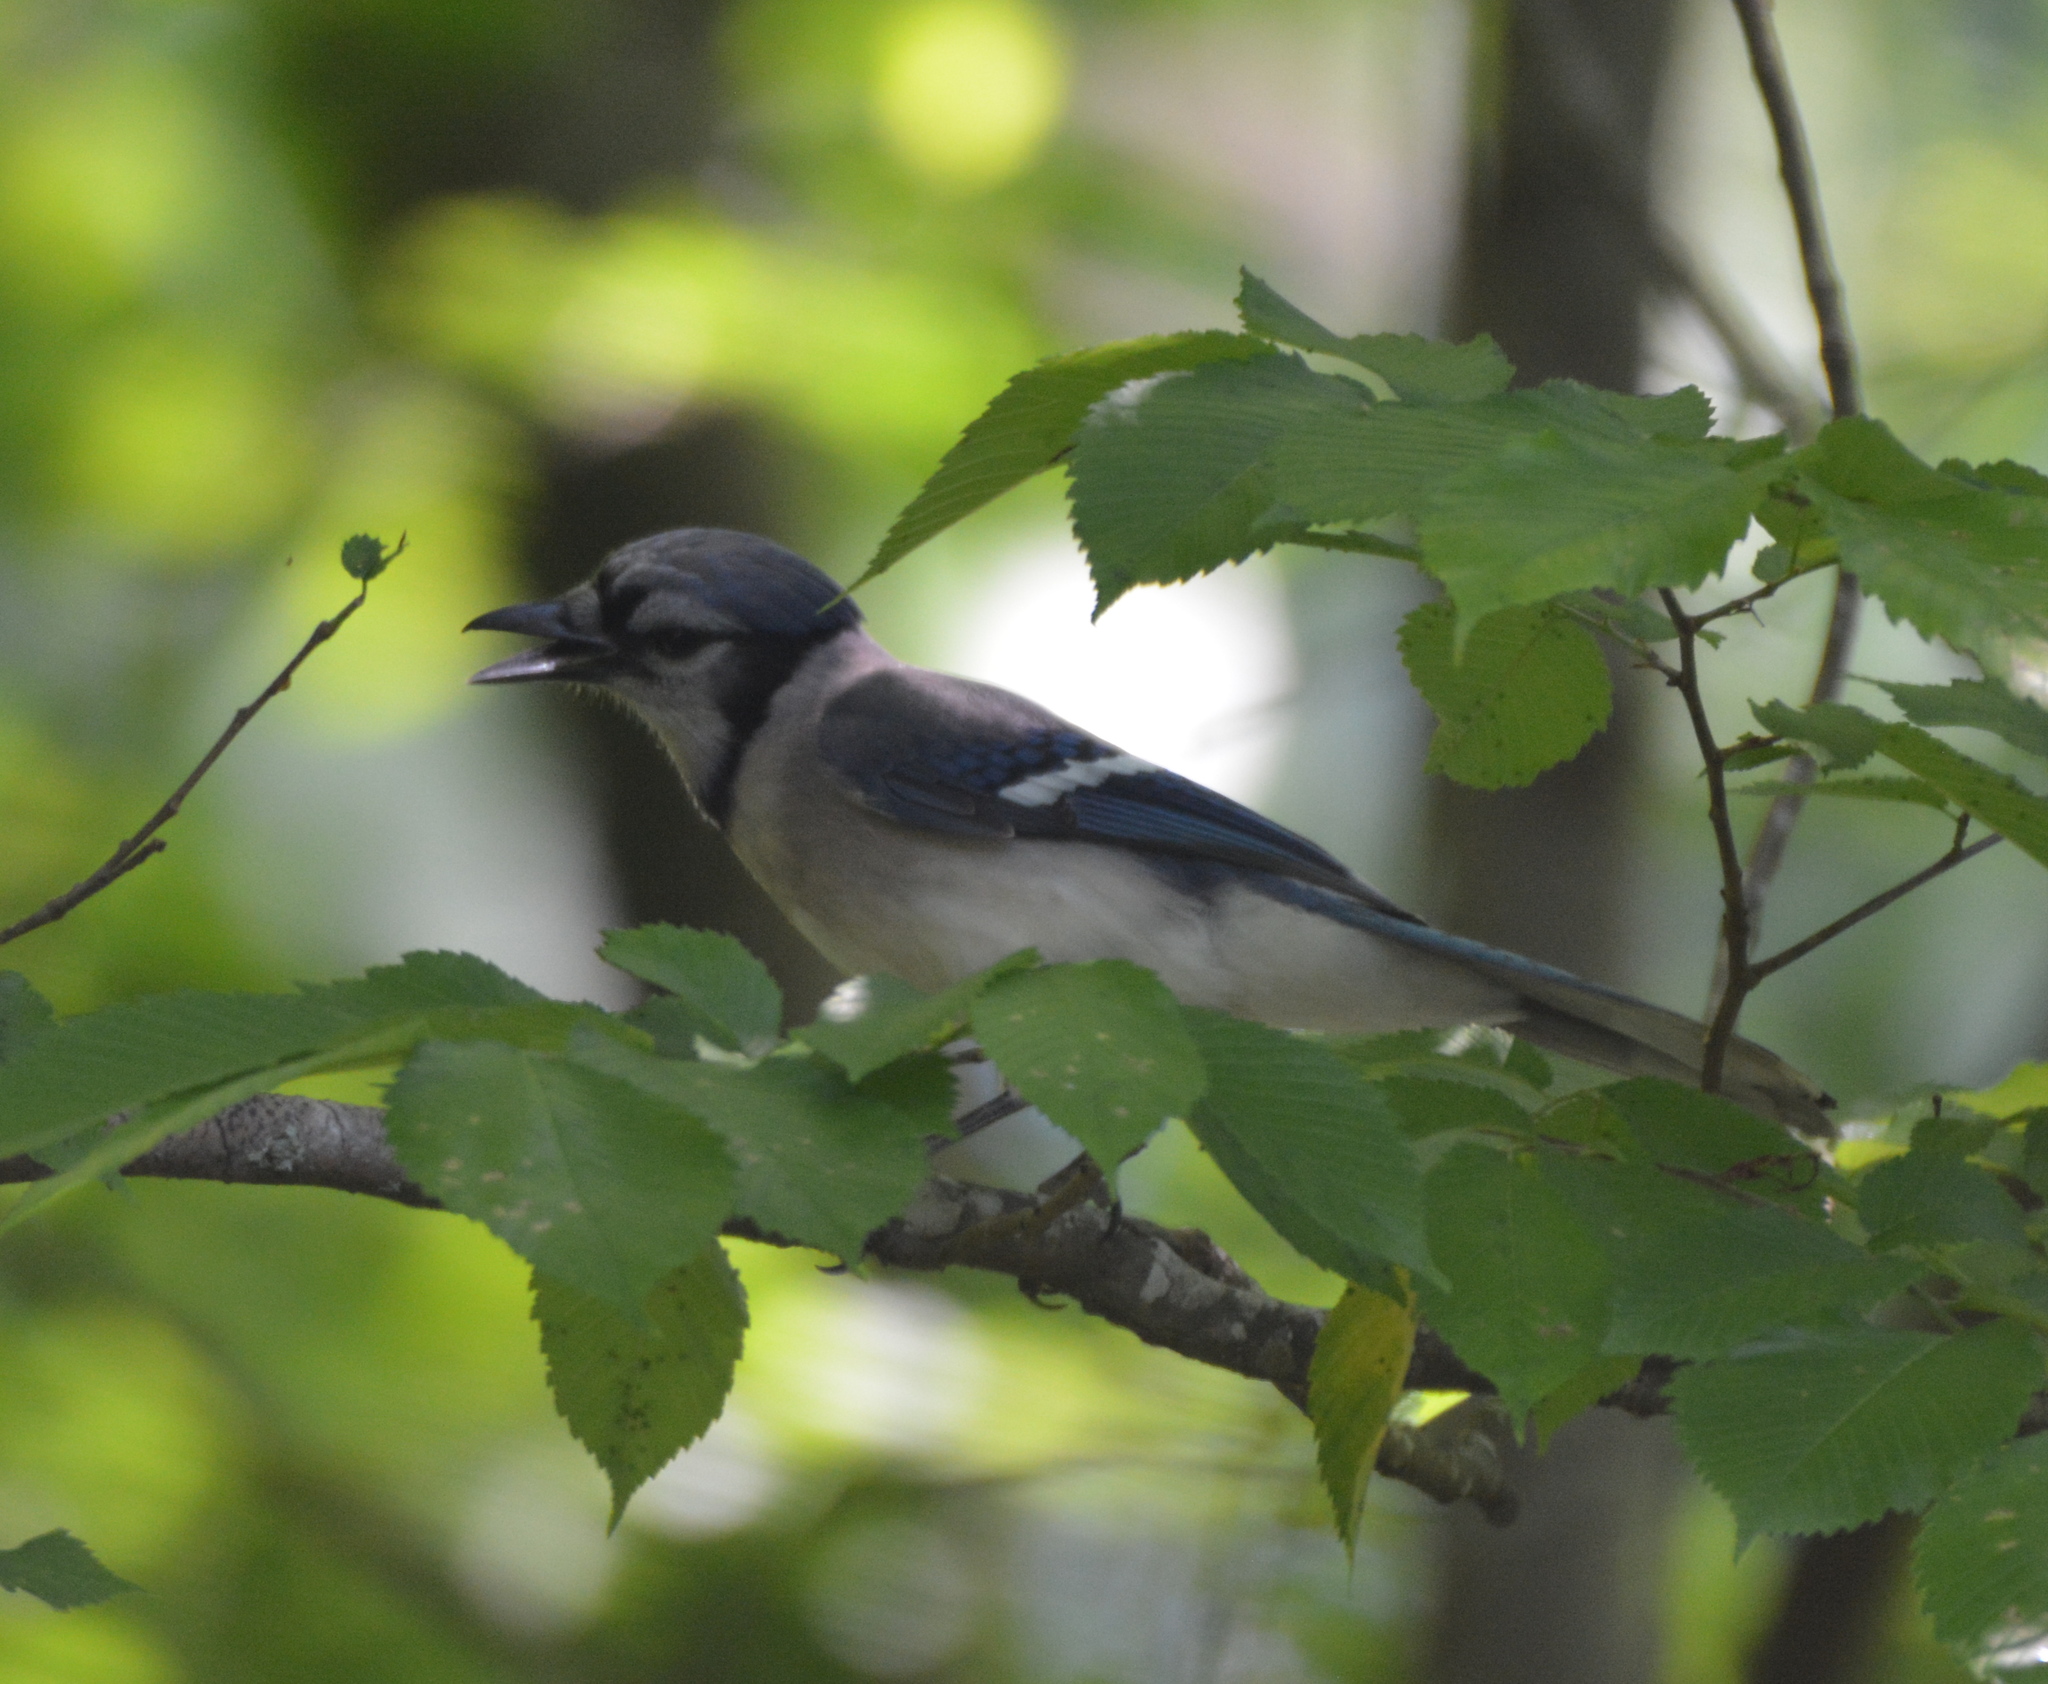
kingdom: Animalia
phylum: Chordata
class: Aves
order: Passeriformes
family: Corvidae
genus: Cyanocitta
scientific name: Cyanocitta cristata
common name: Blue jay
